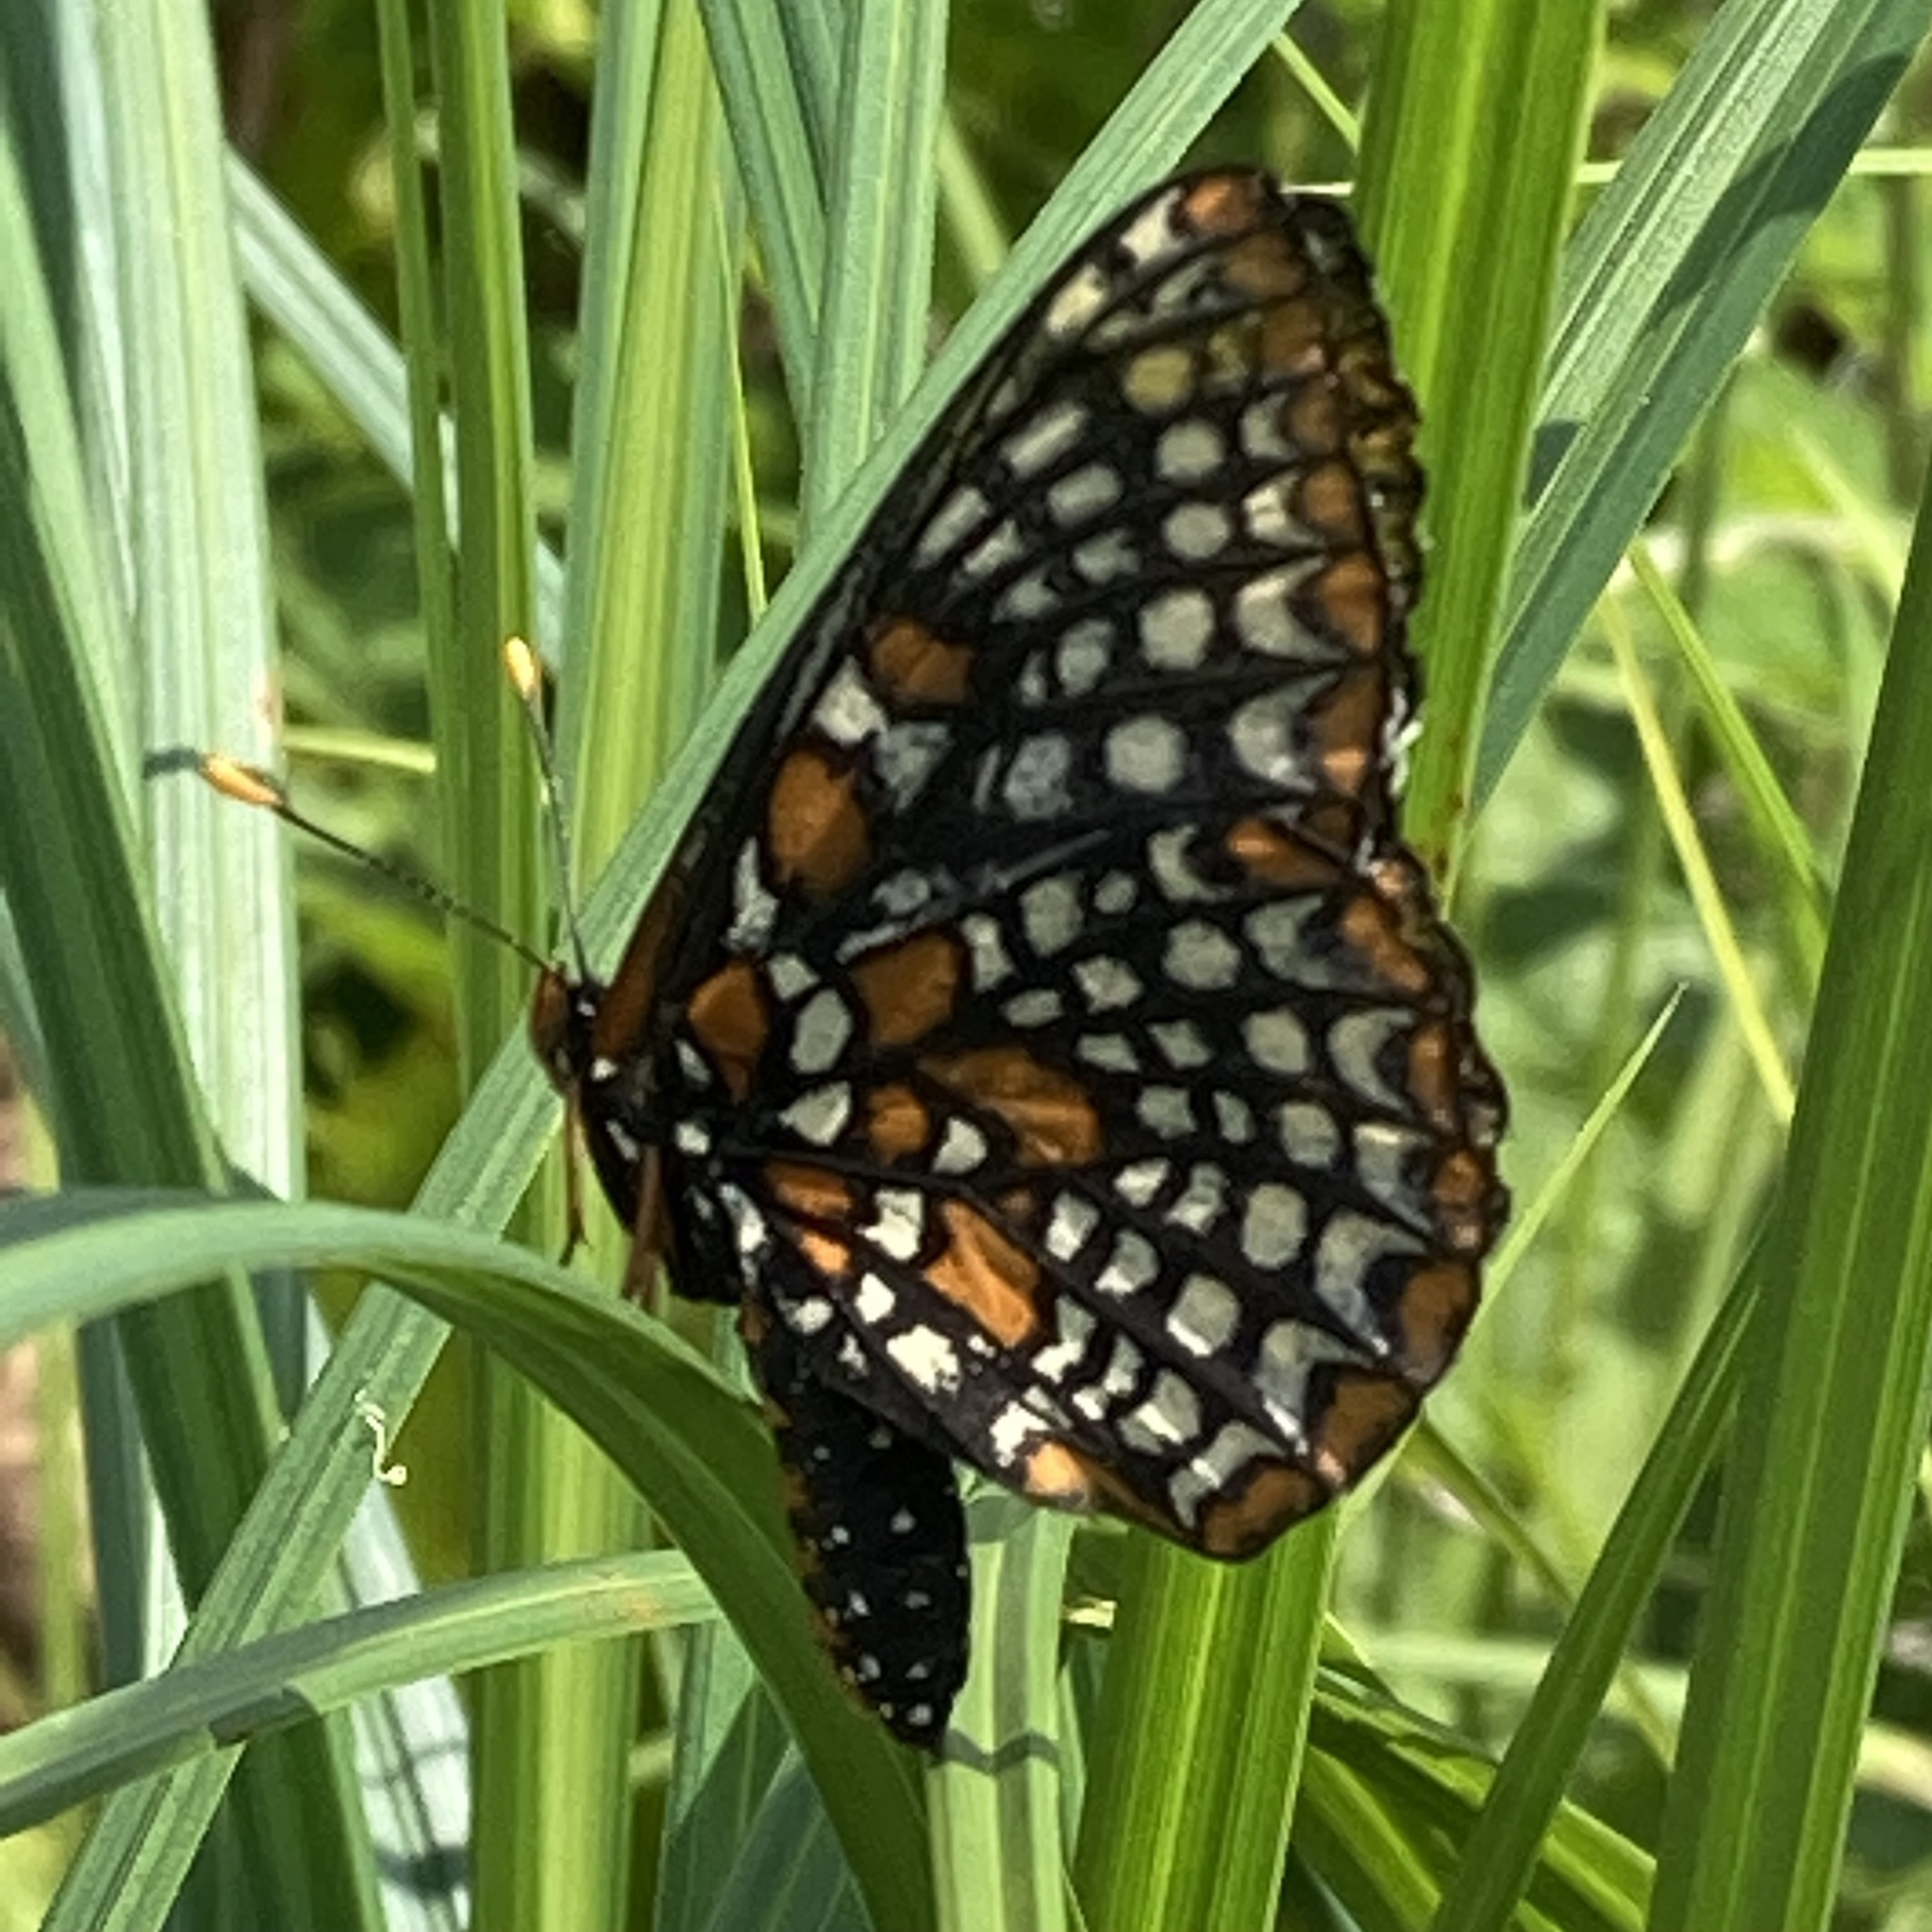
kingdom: Animalia
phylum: Arthropoda
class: Insecta
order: Lepidoptera
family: Nymphalidae
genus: Euphydryas
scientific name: Euphydryas phaeton
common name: Baltimore checkerspot
